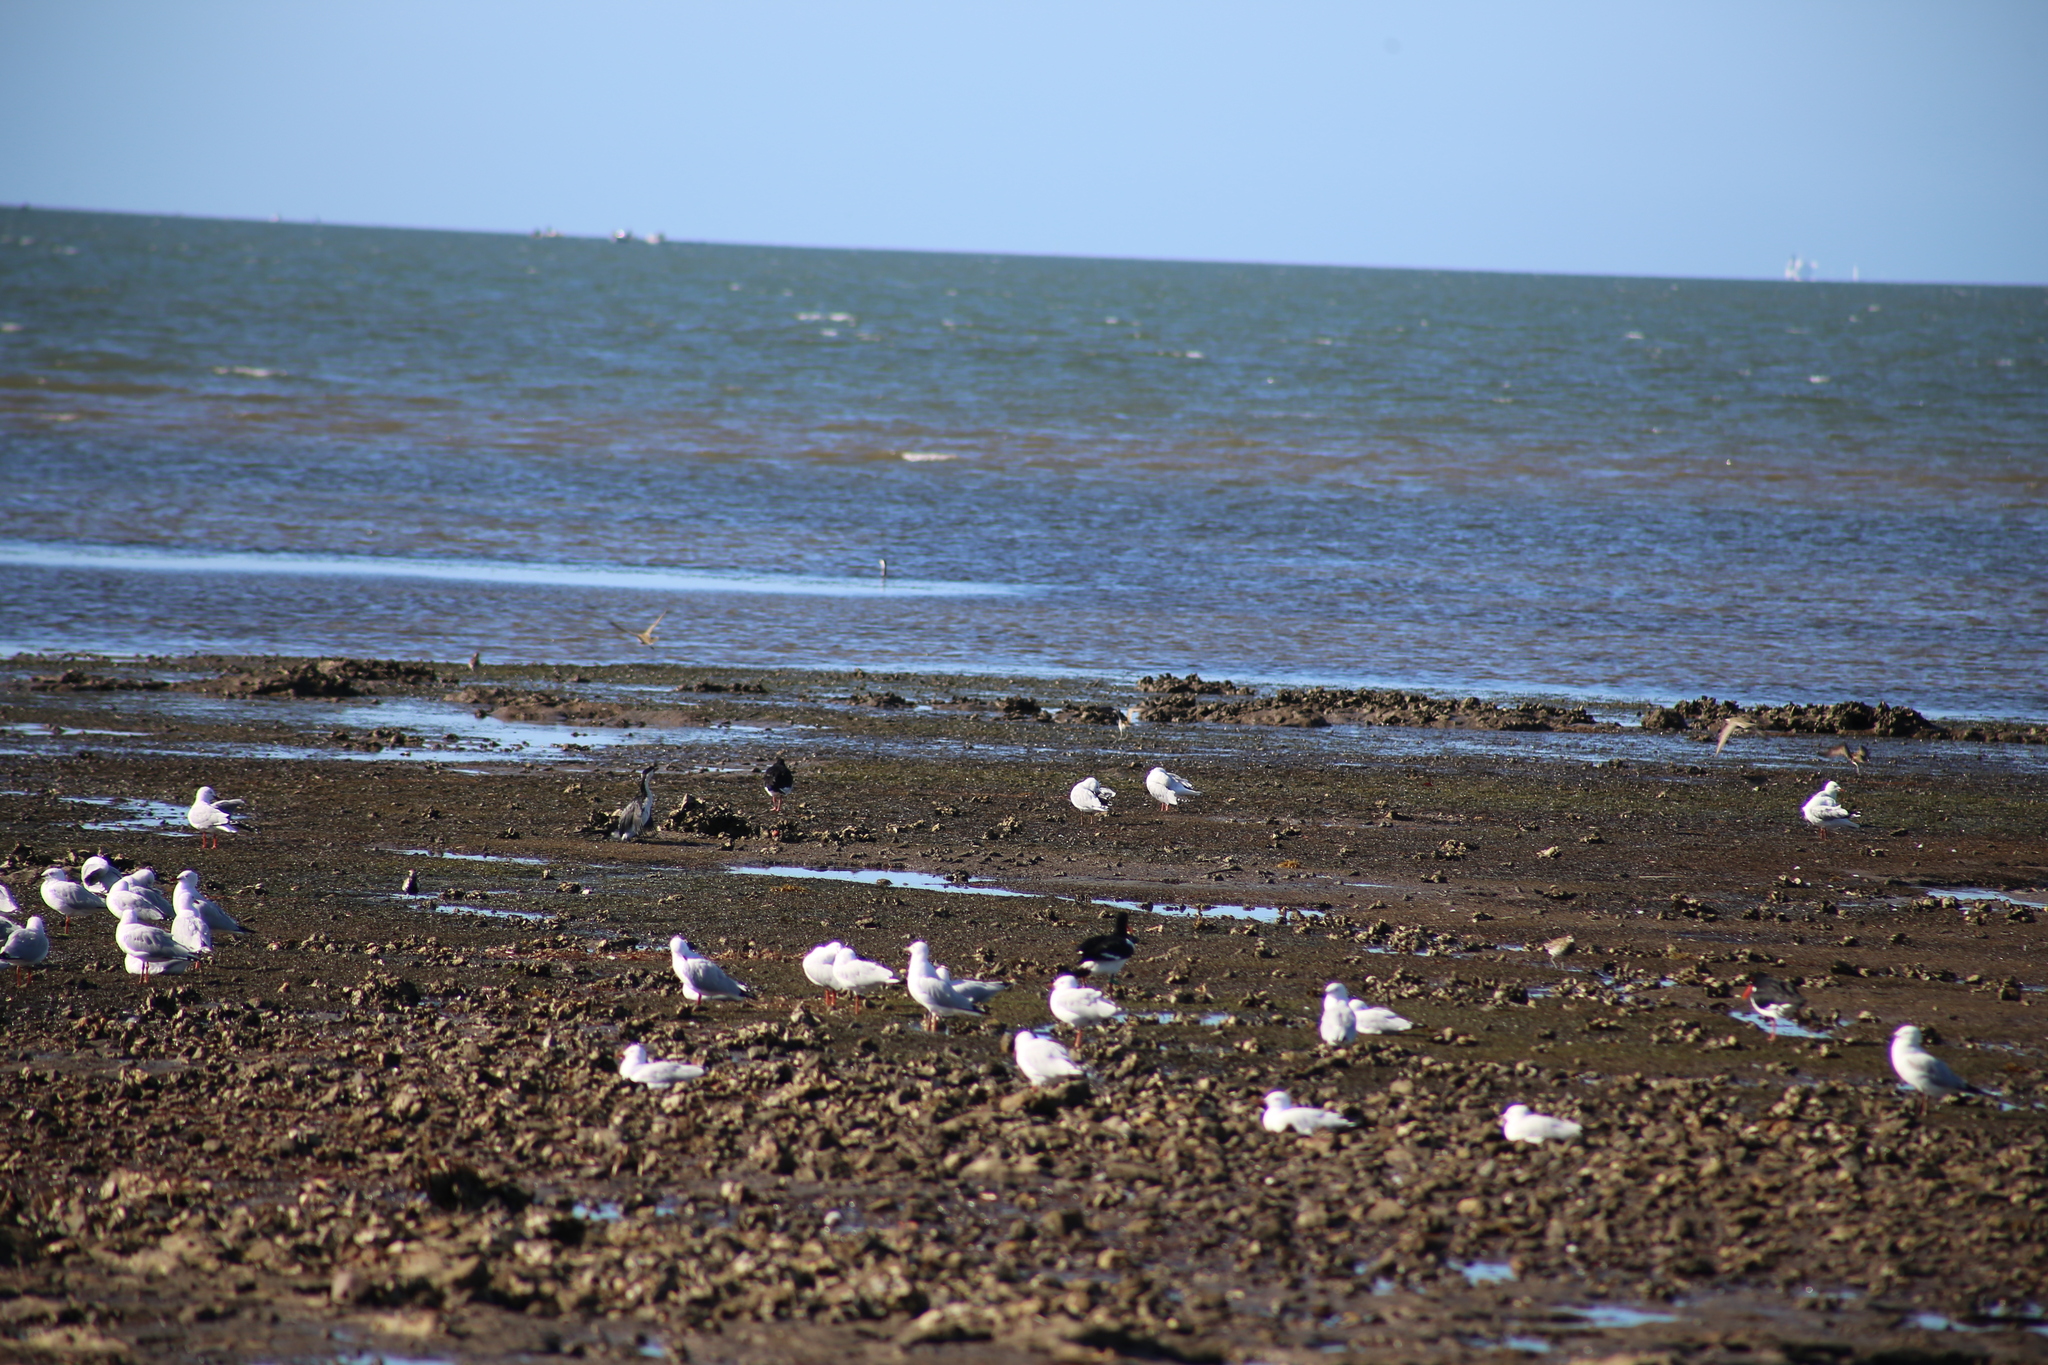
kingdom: Animalia
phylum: Chordata
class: Aves
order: Suliformes
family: Phalacrocoracidae
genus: Microcarbo
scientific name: Microcarbo melanoleucos
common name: Little pied cormorant
